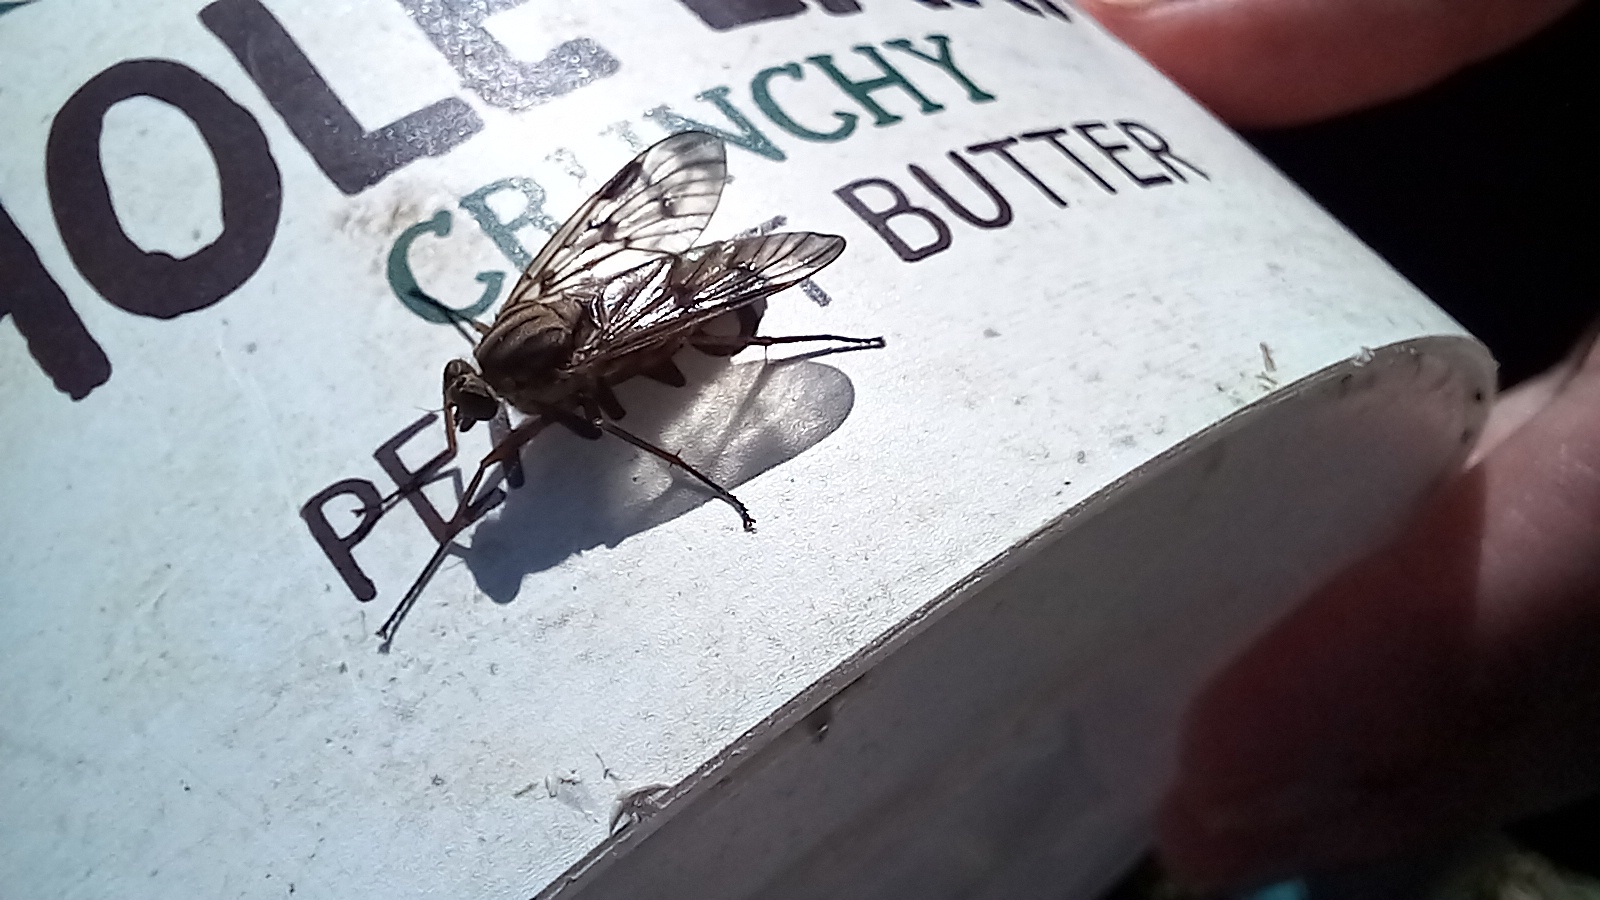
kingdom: Animalia
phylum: Arthropoda
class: Insecta
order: Diptera
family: Rhagionidae
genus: Rhagio
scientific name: Rhagio scolopacea
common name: Downlooker snipefly
